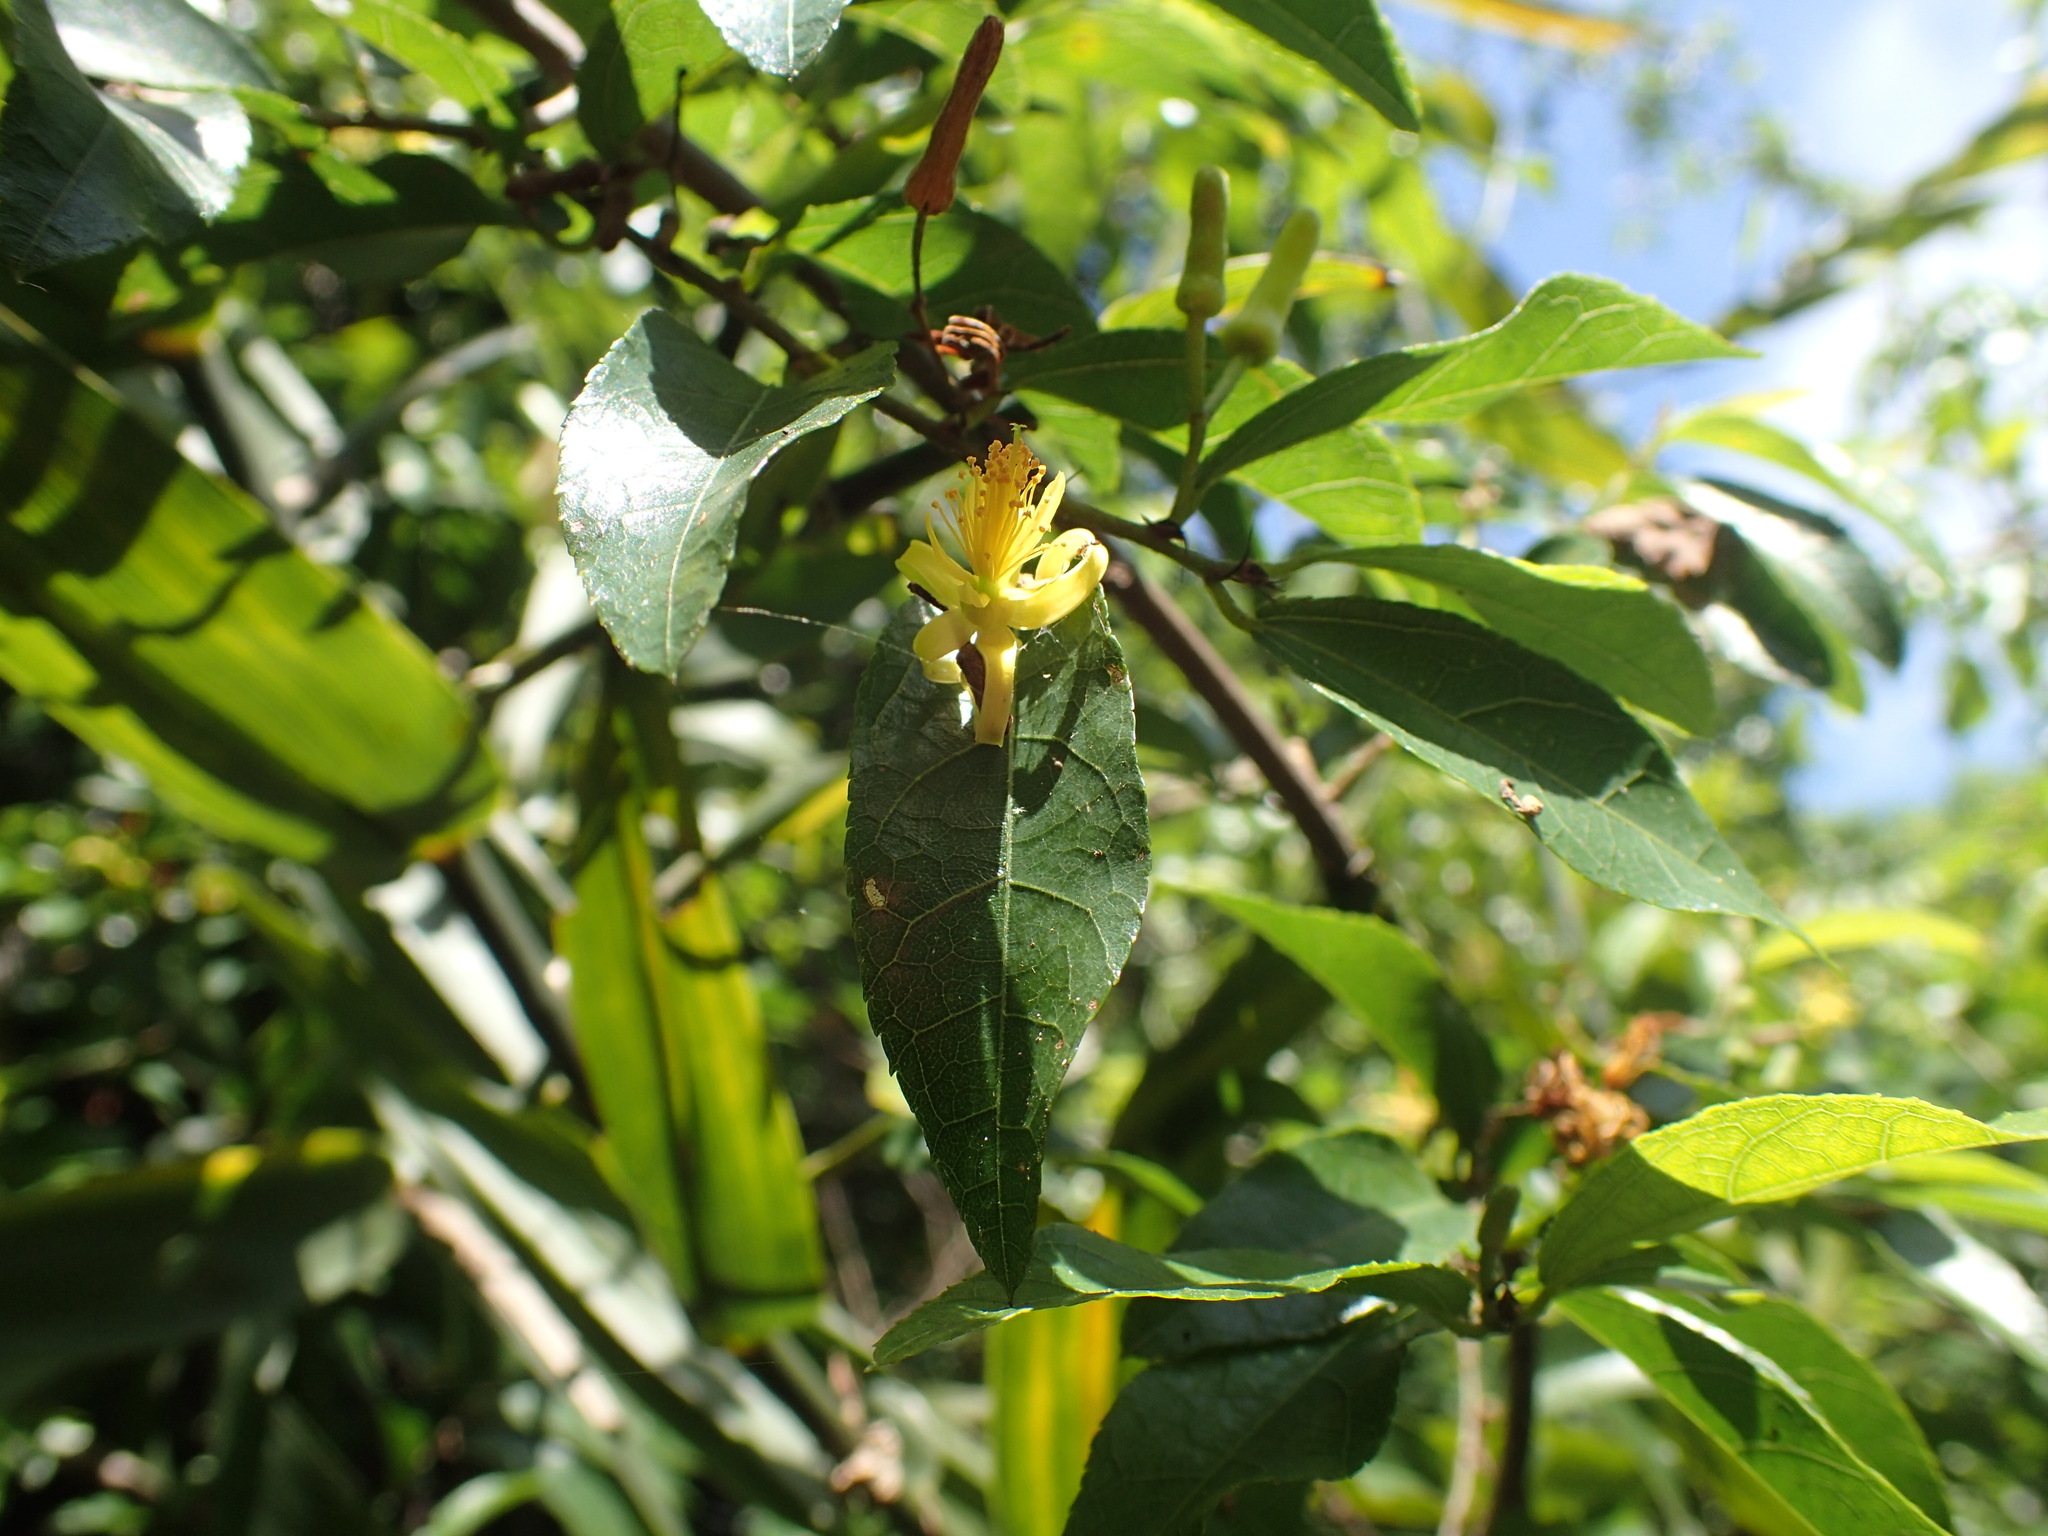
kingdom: Plantae
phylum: Tracheophyta
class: Magnoliopsida
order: Malvales
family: Malvaceae
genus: Grewia
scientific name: Grewia caffra
